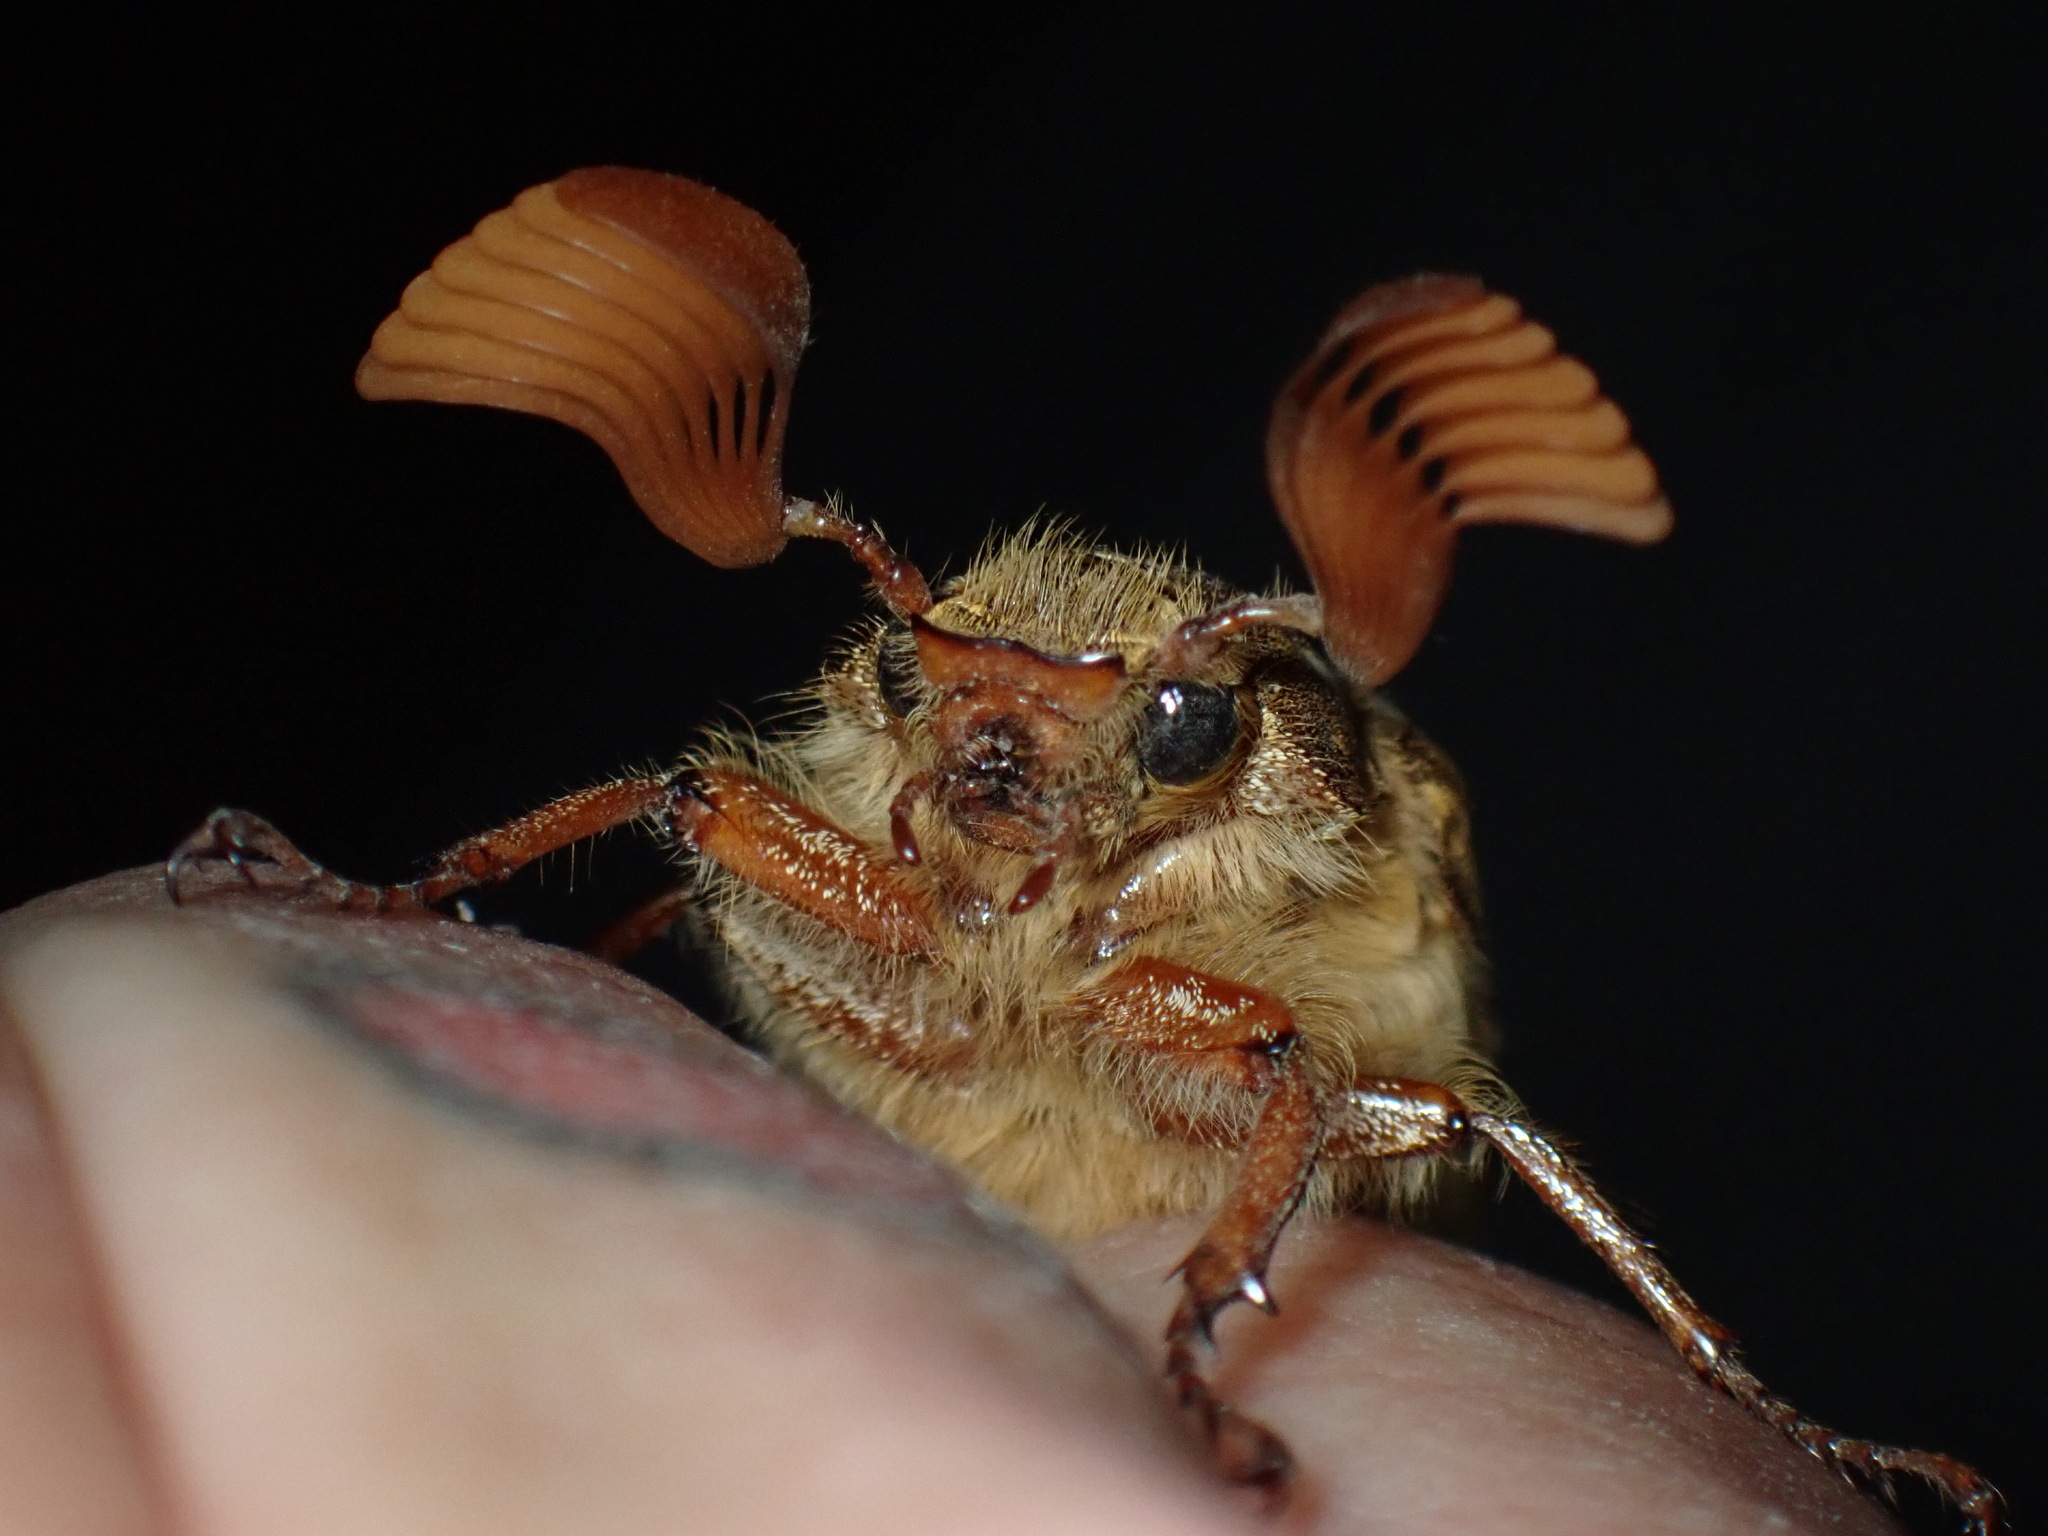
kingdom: Animalia
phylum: Arthropoda
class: Insecta
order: Coleoptera
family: Scarabaeidae
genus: Polyphylla
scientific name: Polyphylla decemlineata
